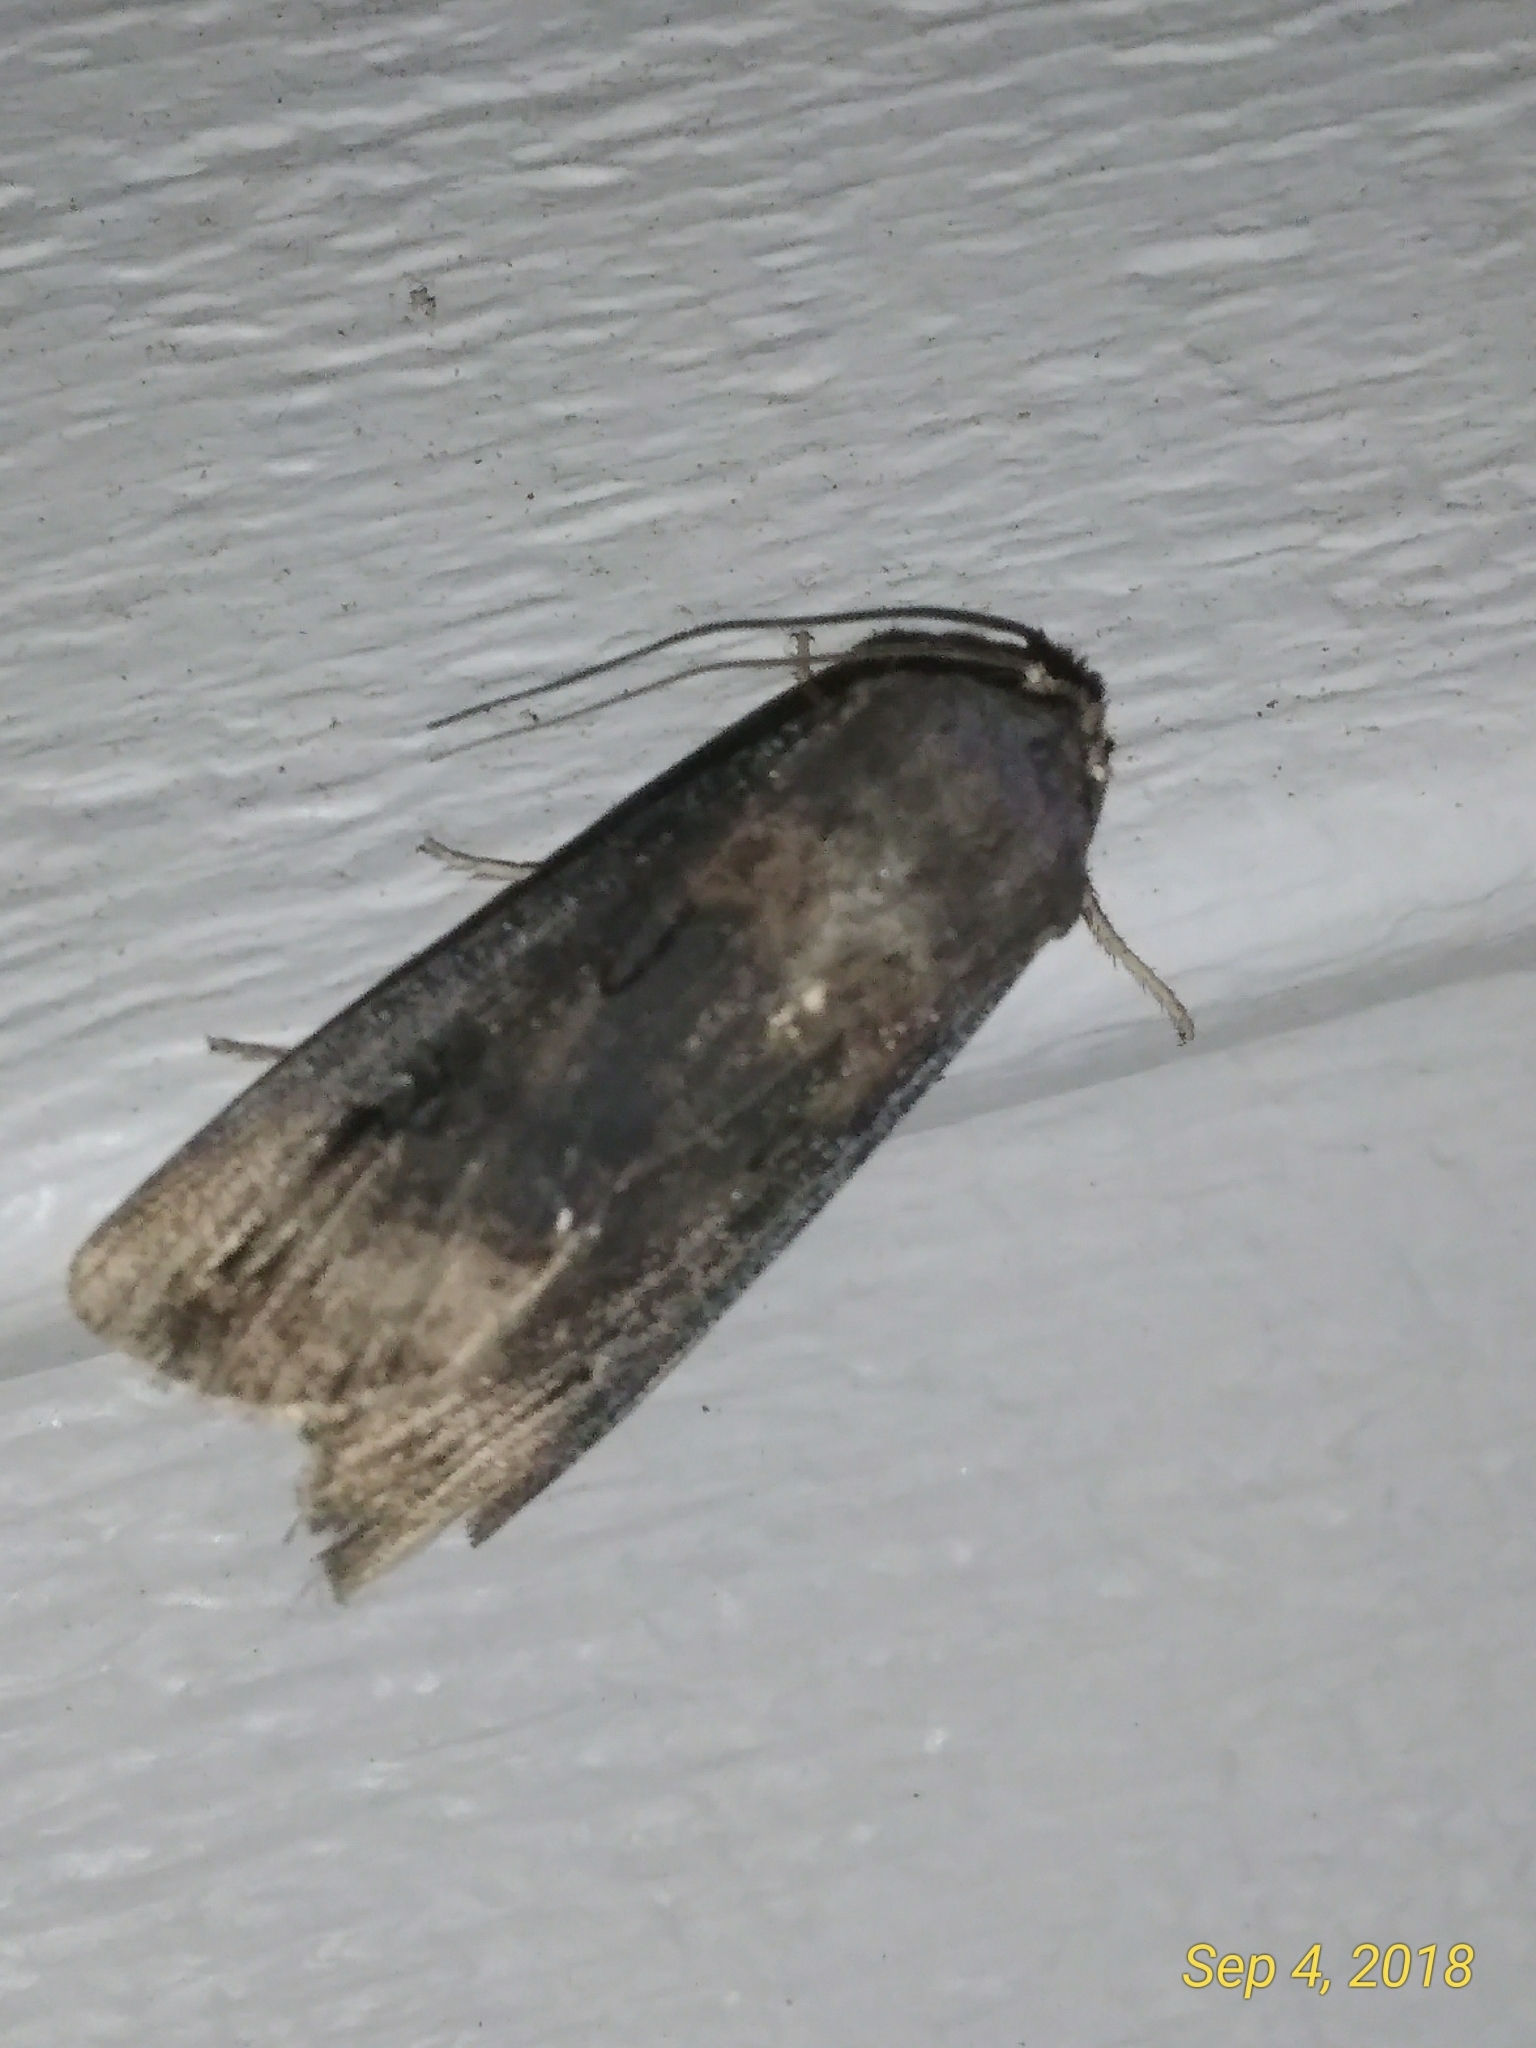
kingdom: Animalia
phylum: Arthropoda
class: Insecta
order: Lepidoptera
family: Noctuidae
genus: Agrotis
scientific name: Agrotis ipsilon
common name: Dark sword-grass
